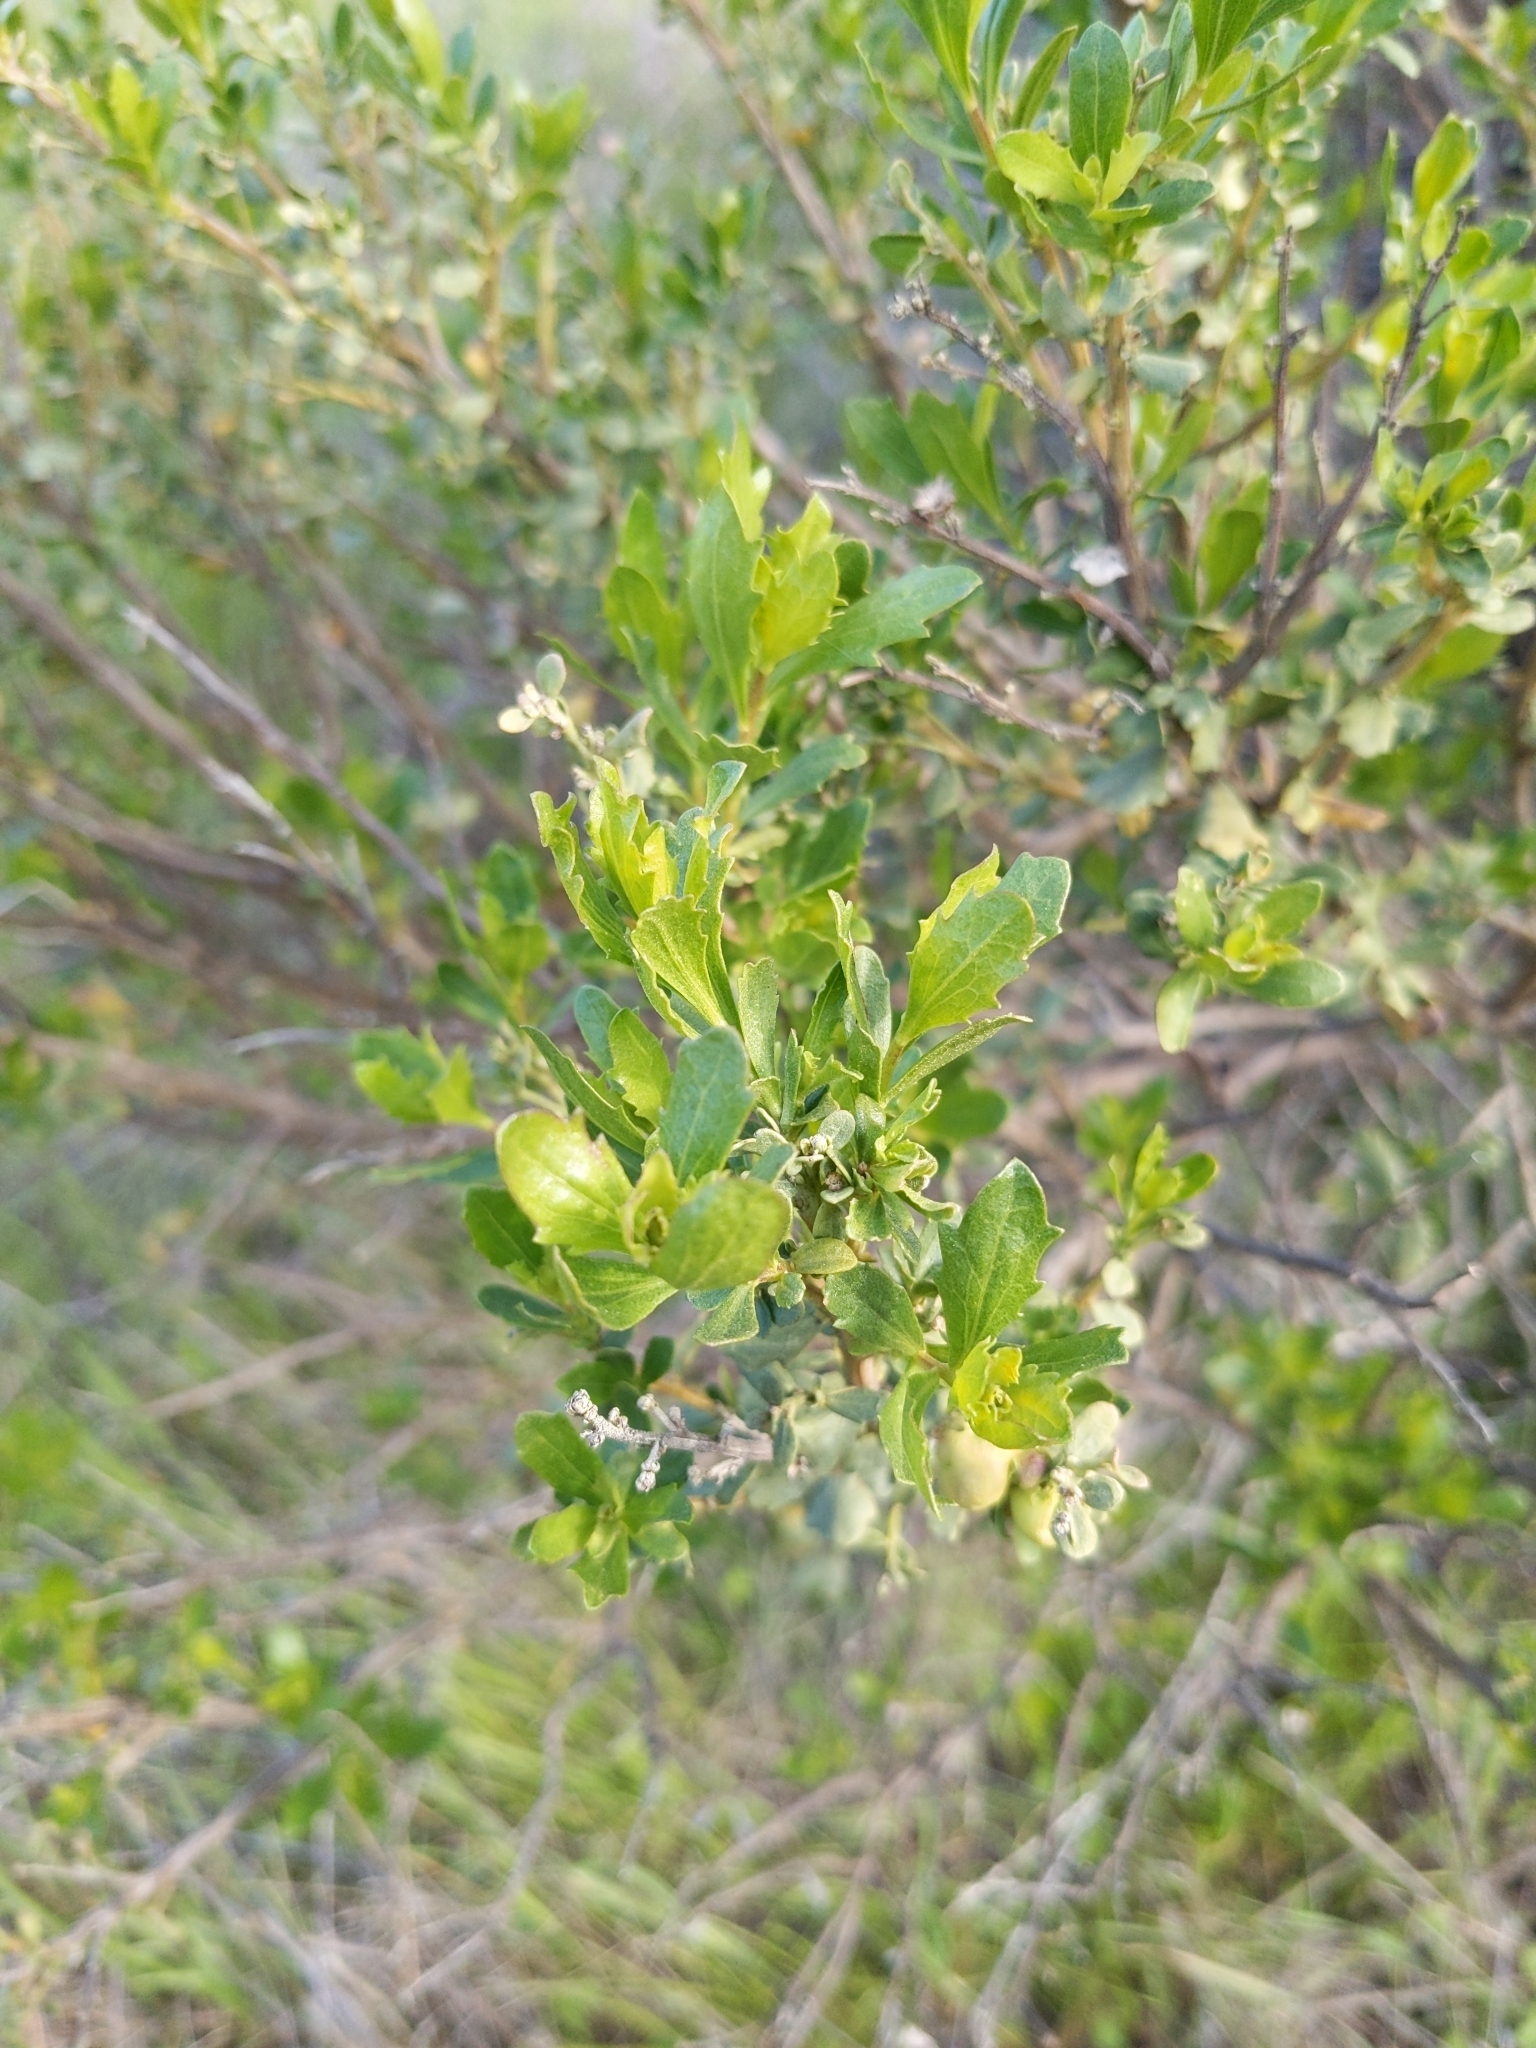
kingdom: Plantae
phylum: Tracheophyta
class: Magnoliopsida
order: Asterales
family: Asteraceae
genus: Baccharis
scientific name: Baccharis pilularis
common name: Coyotebrush
